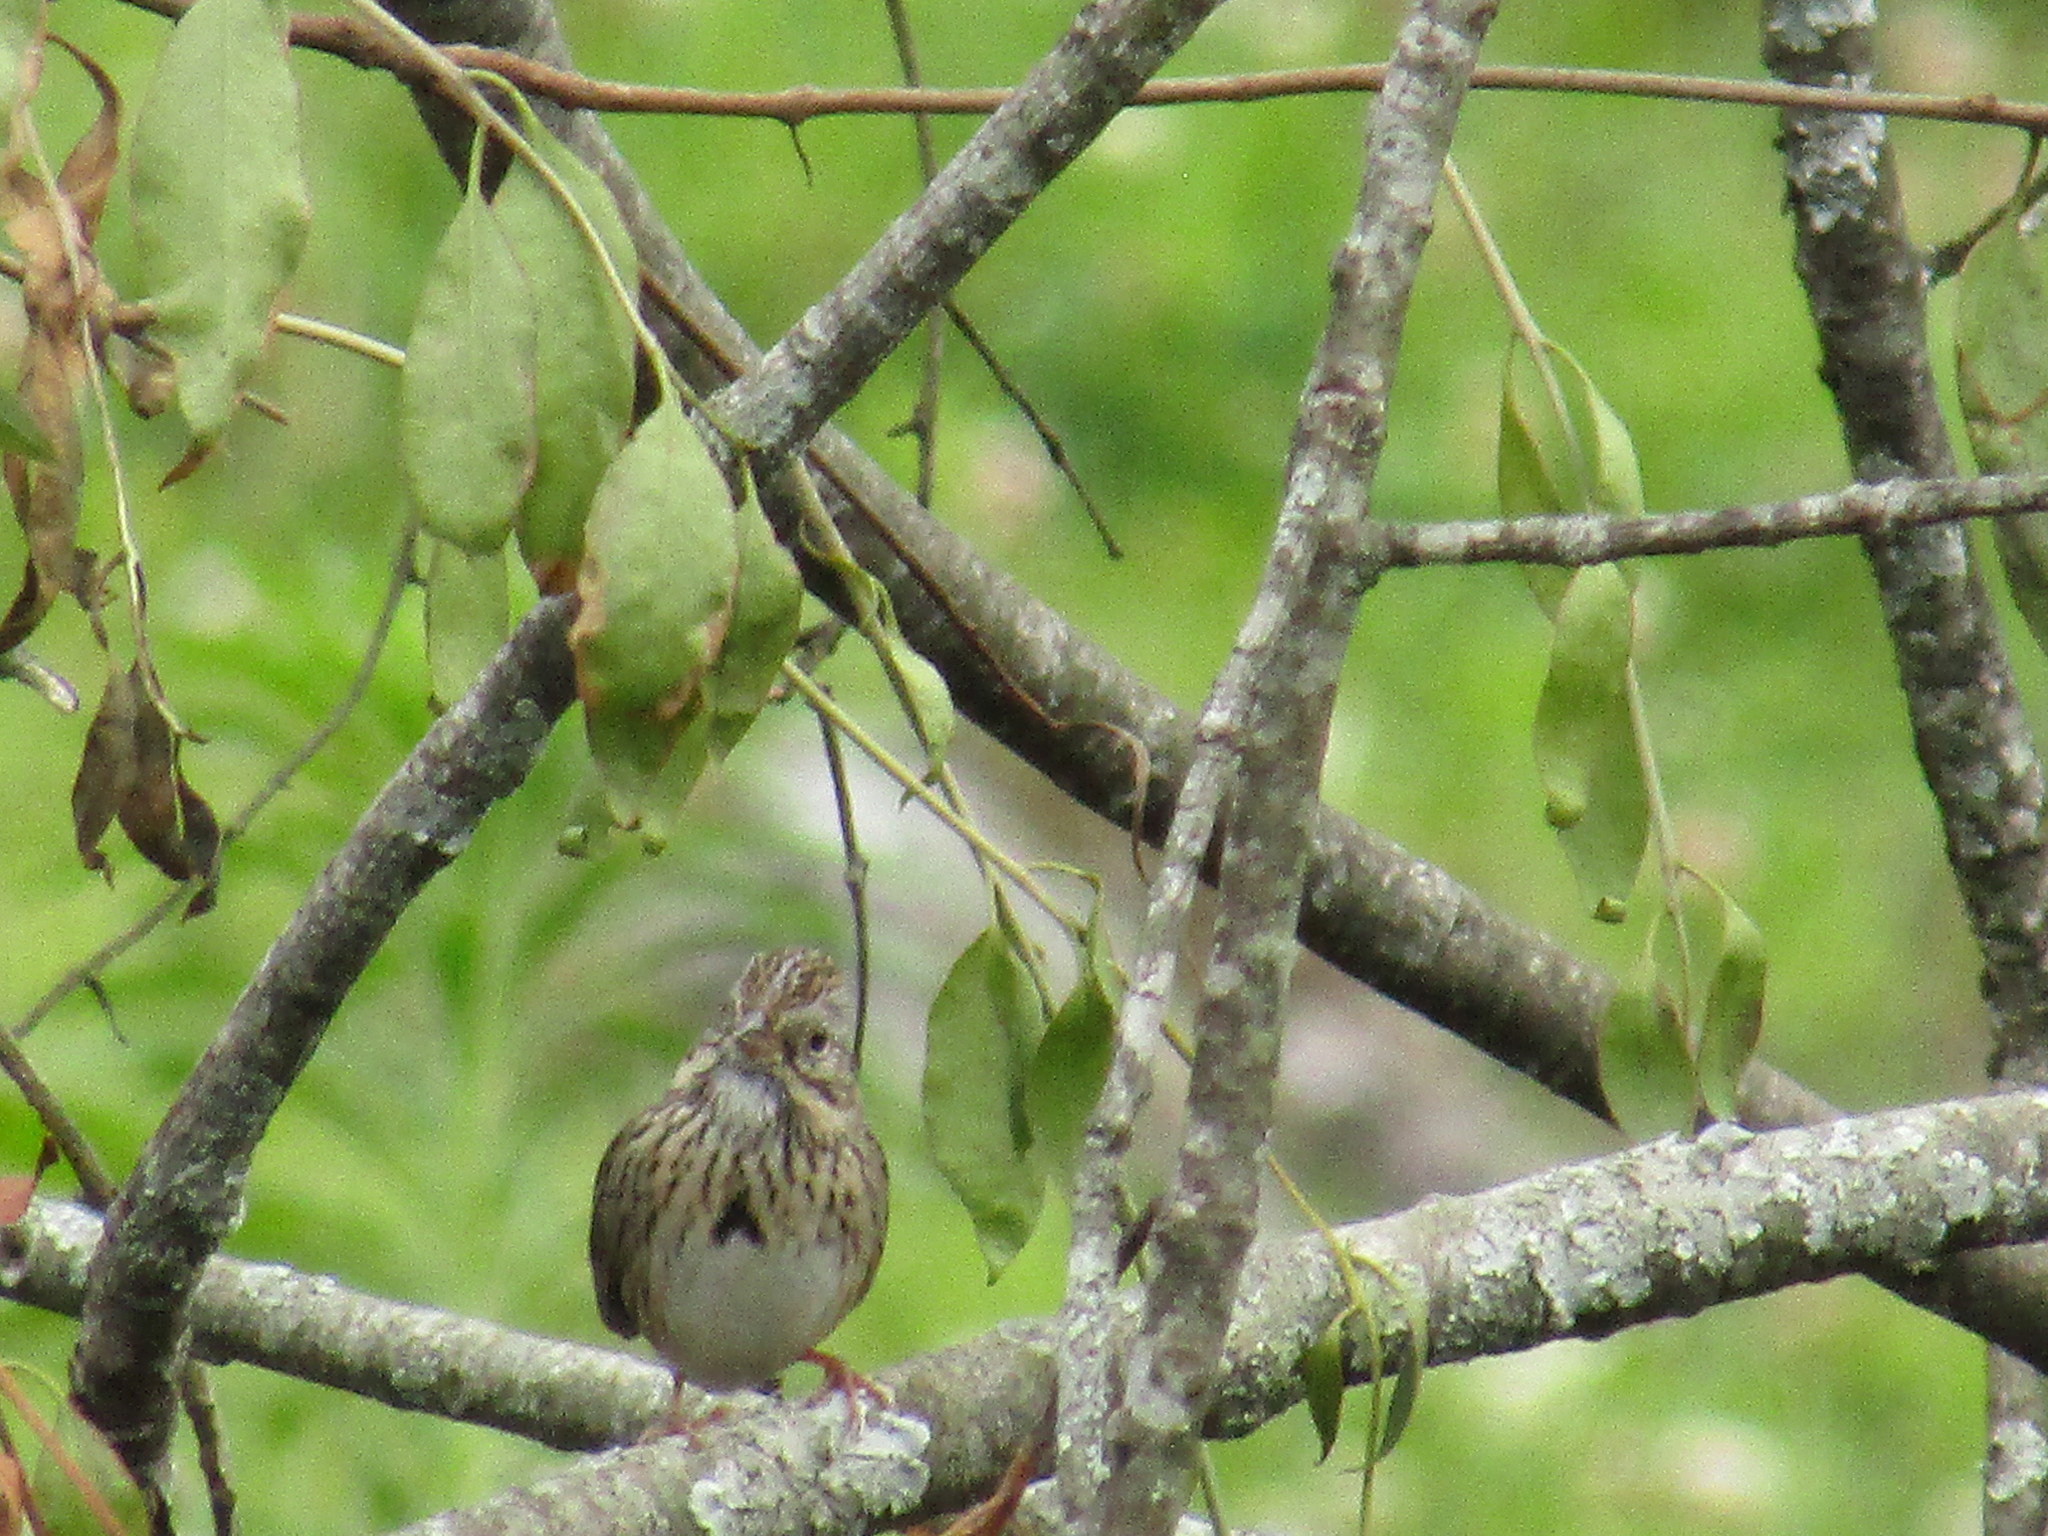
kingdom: Animalia
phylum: Chordata
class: Aves
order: Passeriformes
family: Passerellidae
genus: Melospiza
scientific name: Melospiza lincolnii
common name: Lincoln's sparrow
